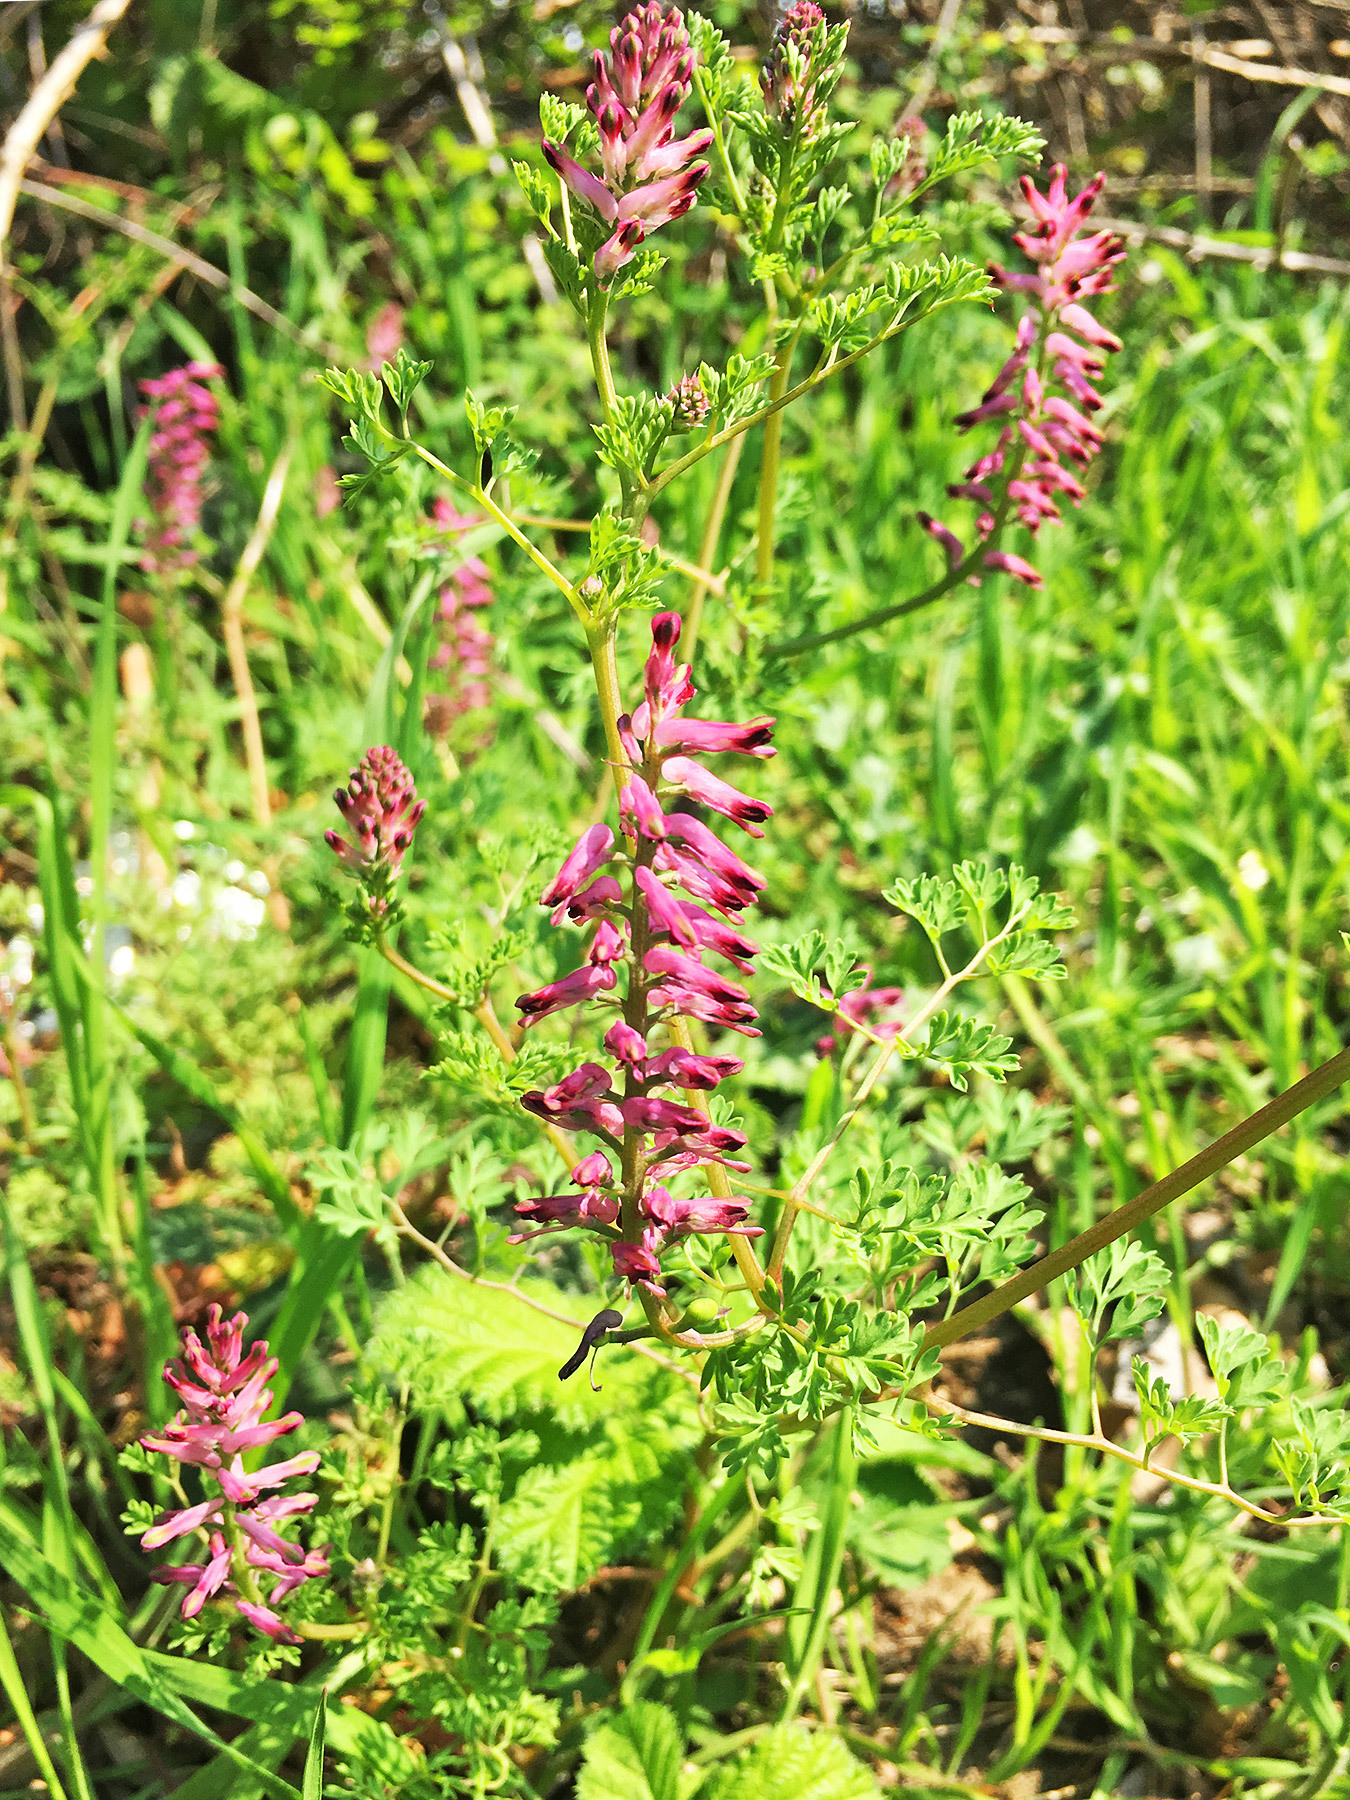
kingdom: Plantae
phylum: Tracheophyta
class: Magnoliopsida
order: Ranunculales
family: Papaveraceae
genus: Fumaria
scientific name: Fumaria officinalis
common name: Common fumitory
